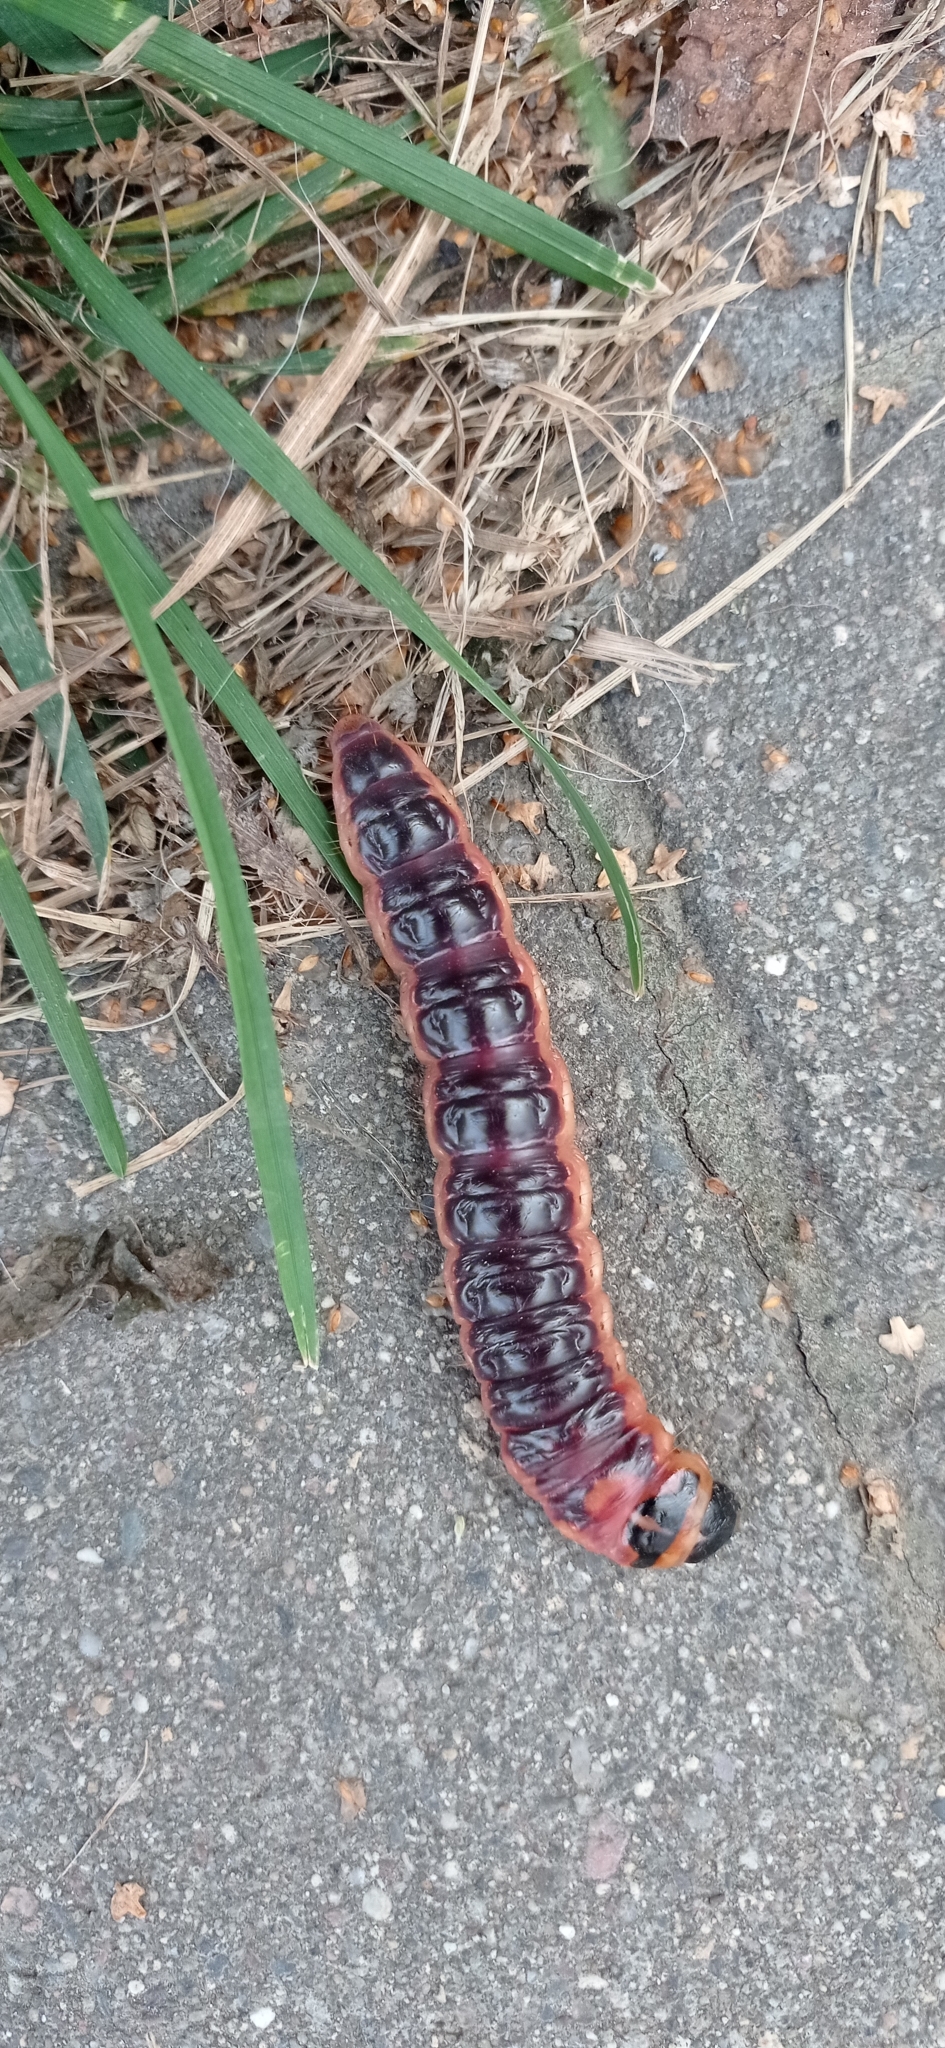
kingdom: Animalia
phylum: Arthropoda
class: Insecta
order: Lepidoptera
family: Cossidae
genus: Cossus
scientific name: Cossus cossus
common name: Goat moth
